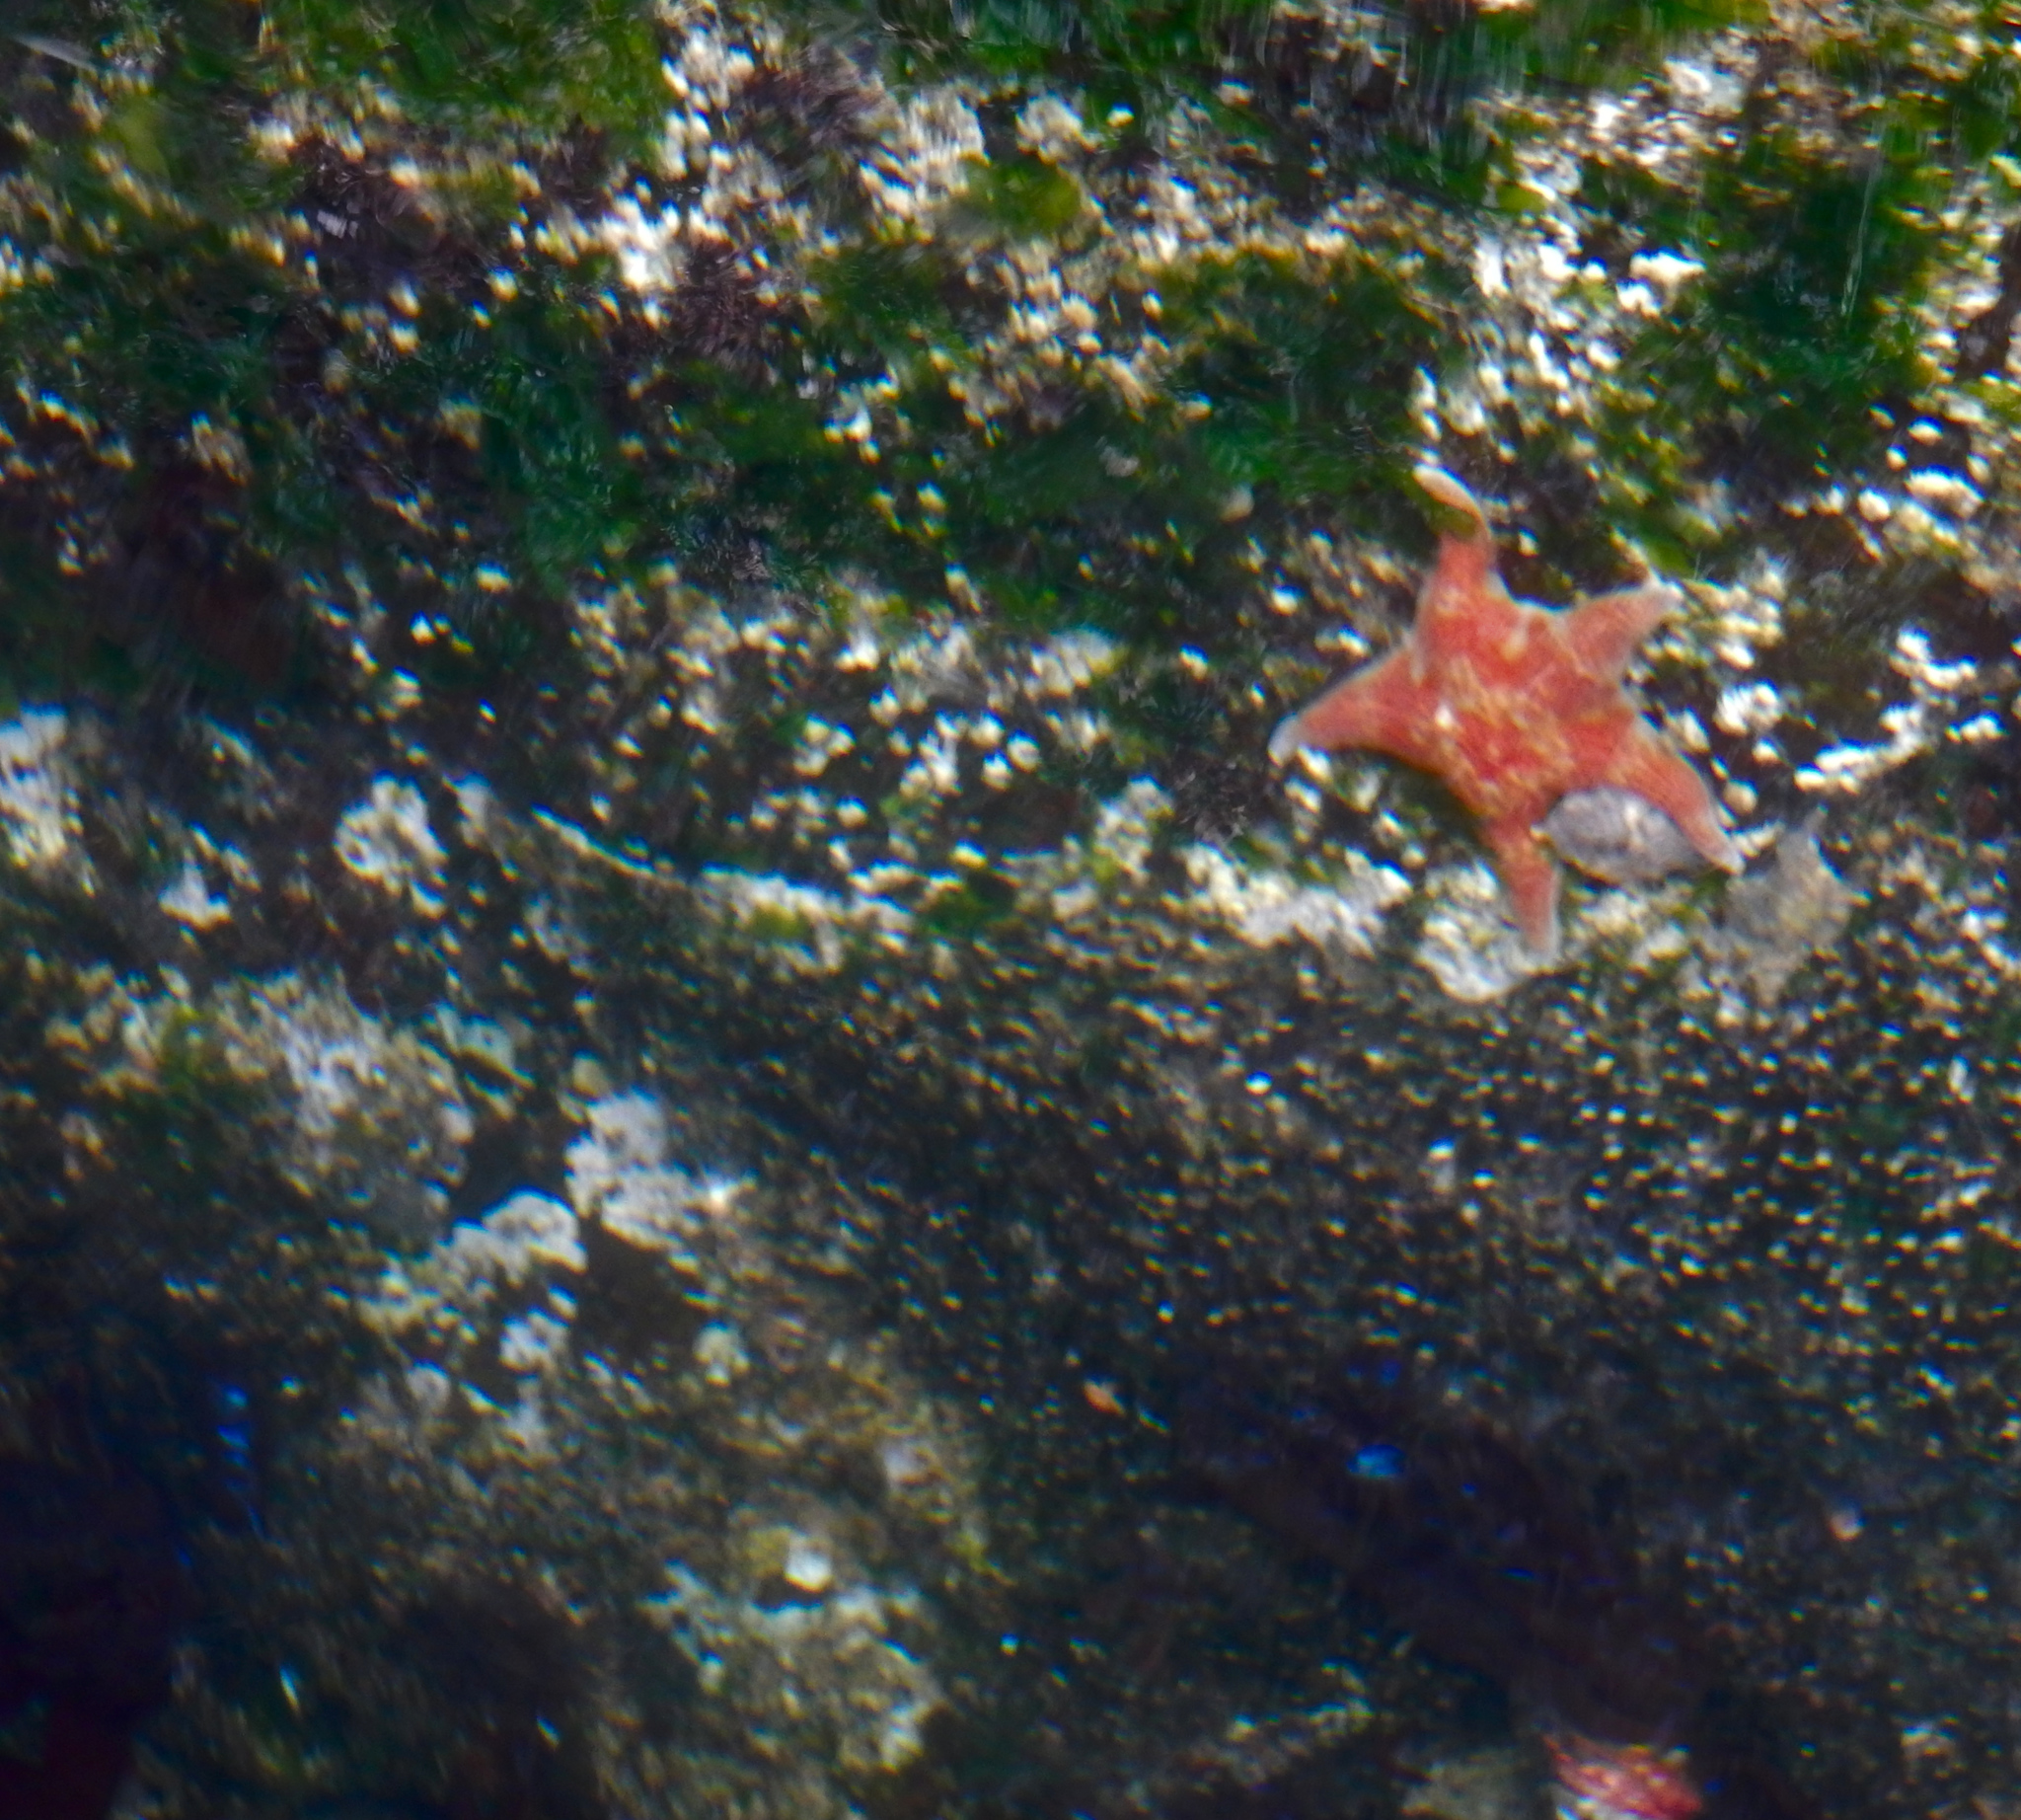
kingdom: Animalia
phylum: Echinodermata
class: Asteroidea
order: Valvatida
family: Asteropseidae
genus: Dermasterias
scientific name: Dermasterias imbricata
